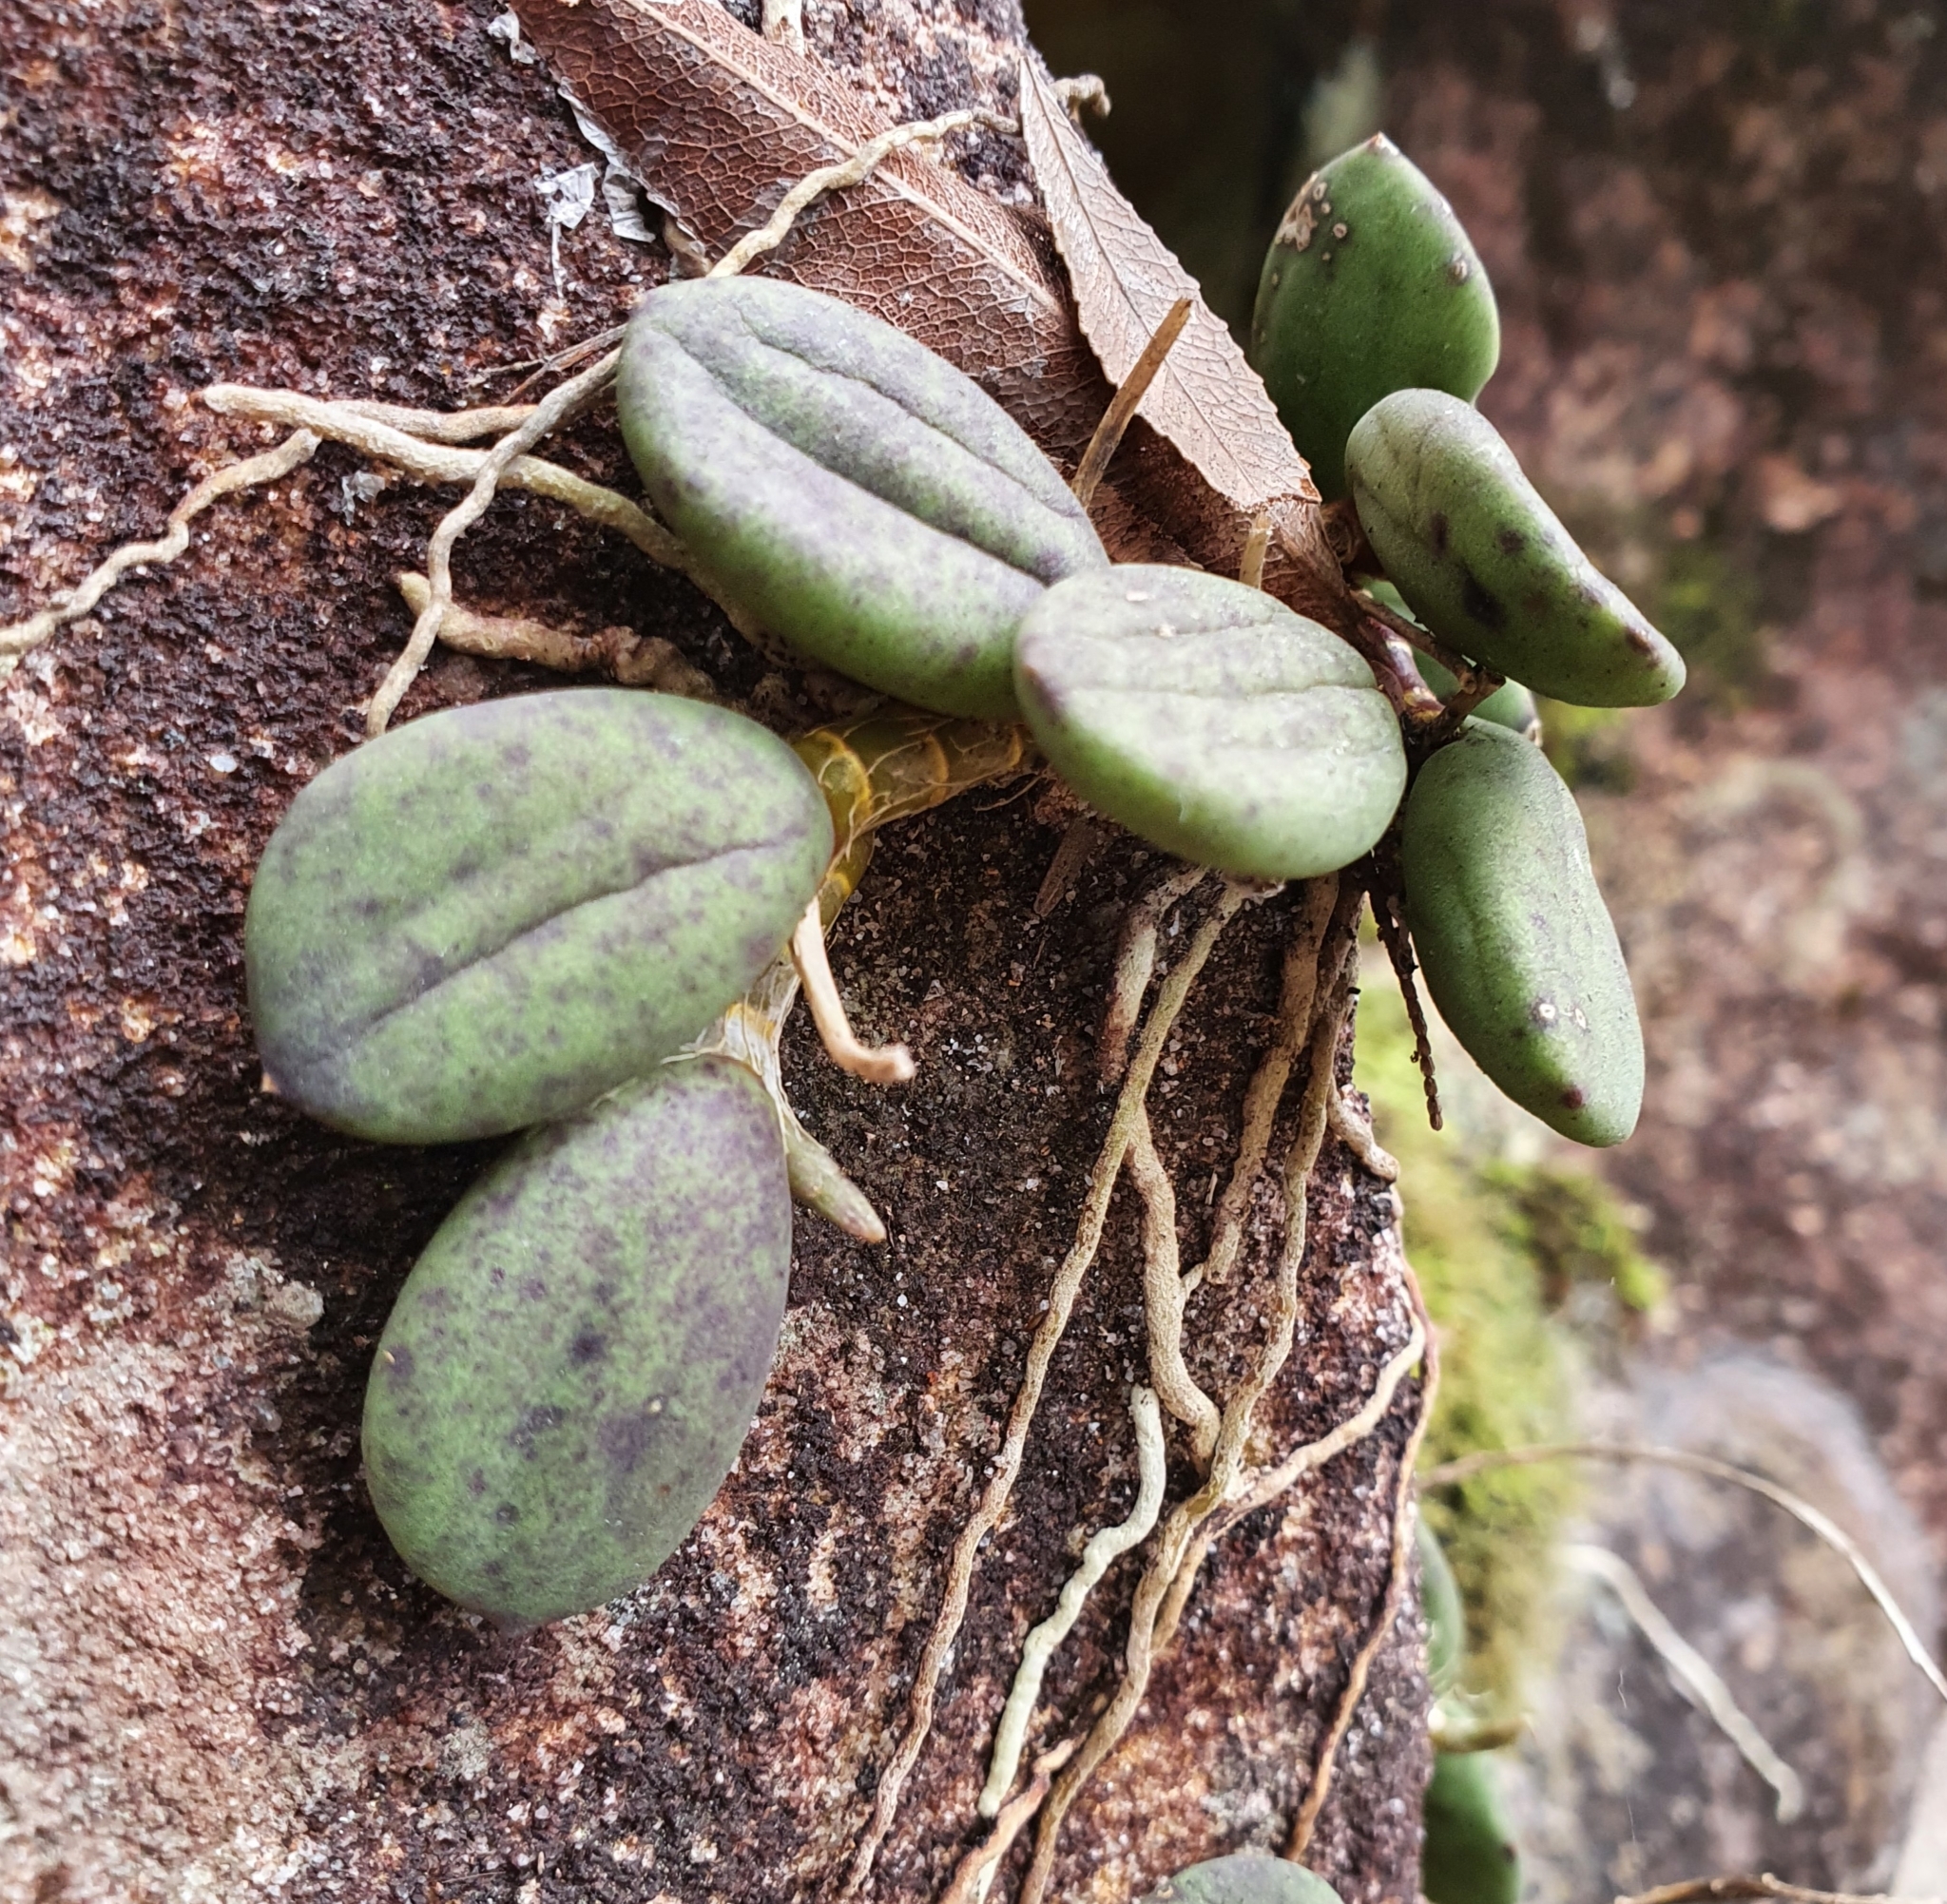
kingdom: Plantae
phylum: Tracheophyta
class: Liliopsida
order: Asparagales
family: Orchidaceae
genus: Dendrobium
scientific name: Dendrobium linguiforme
